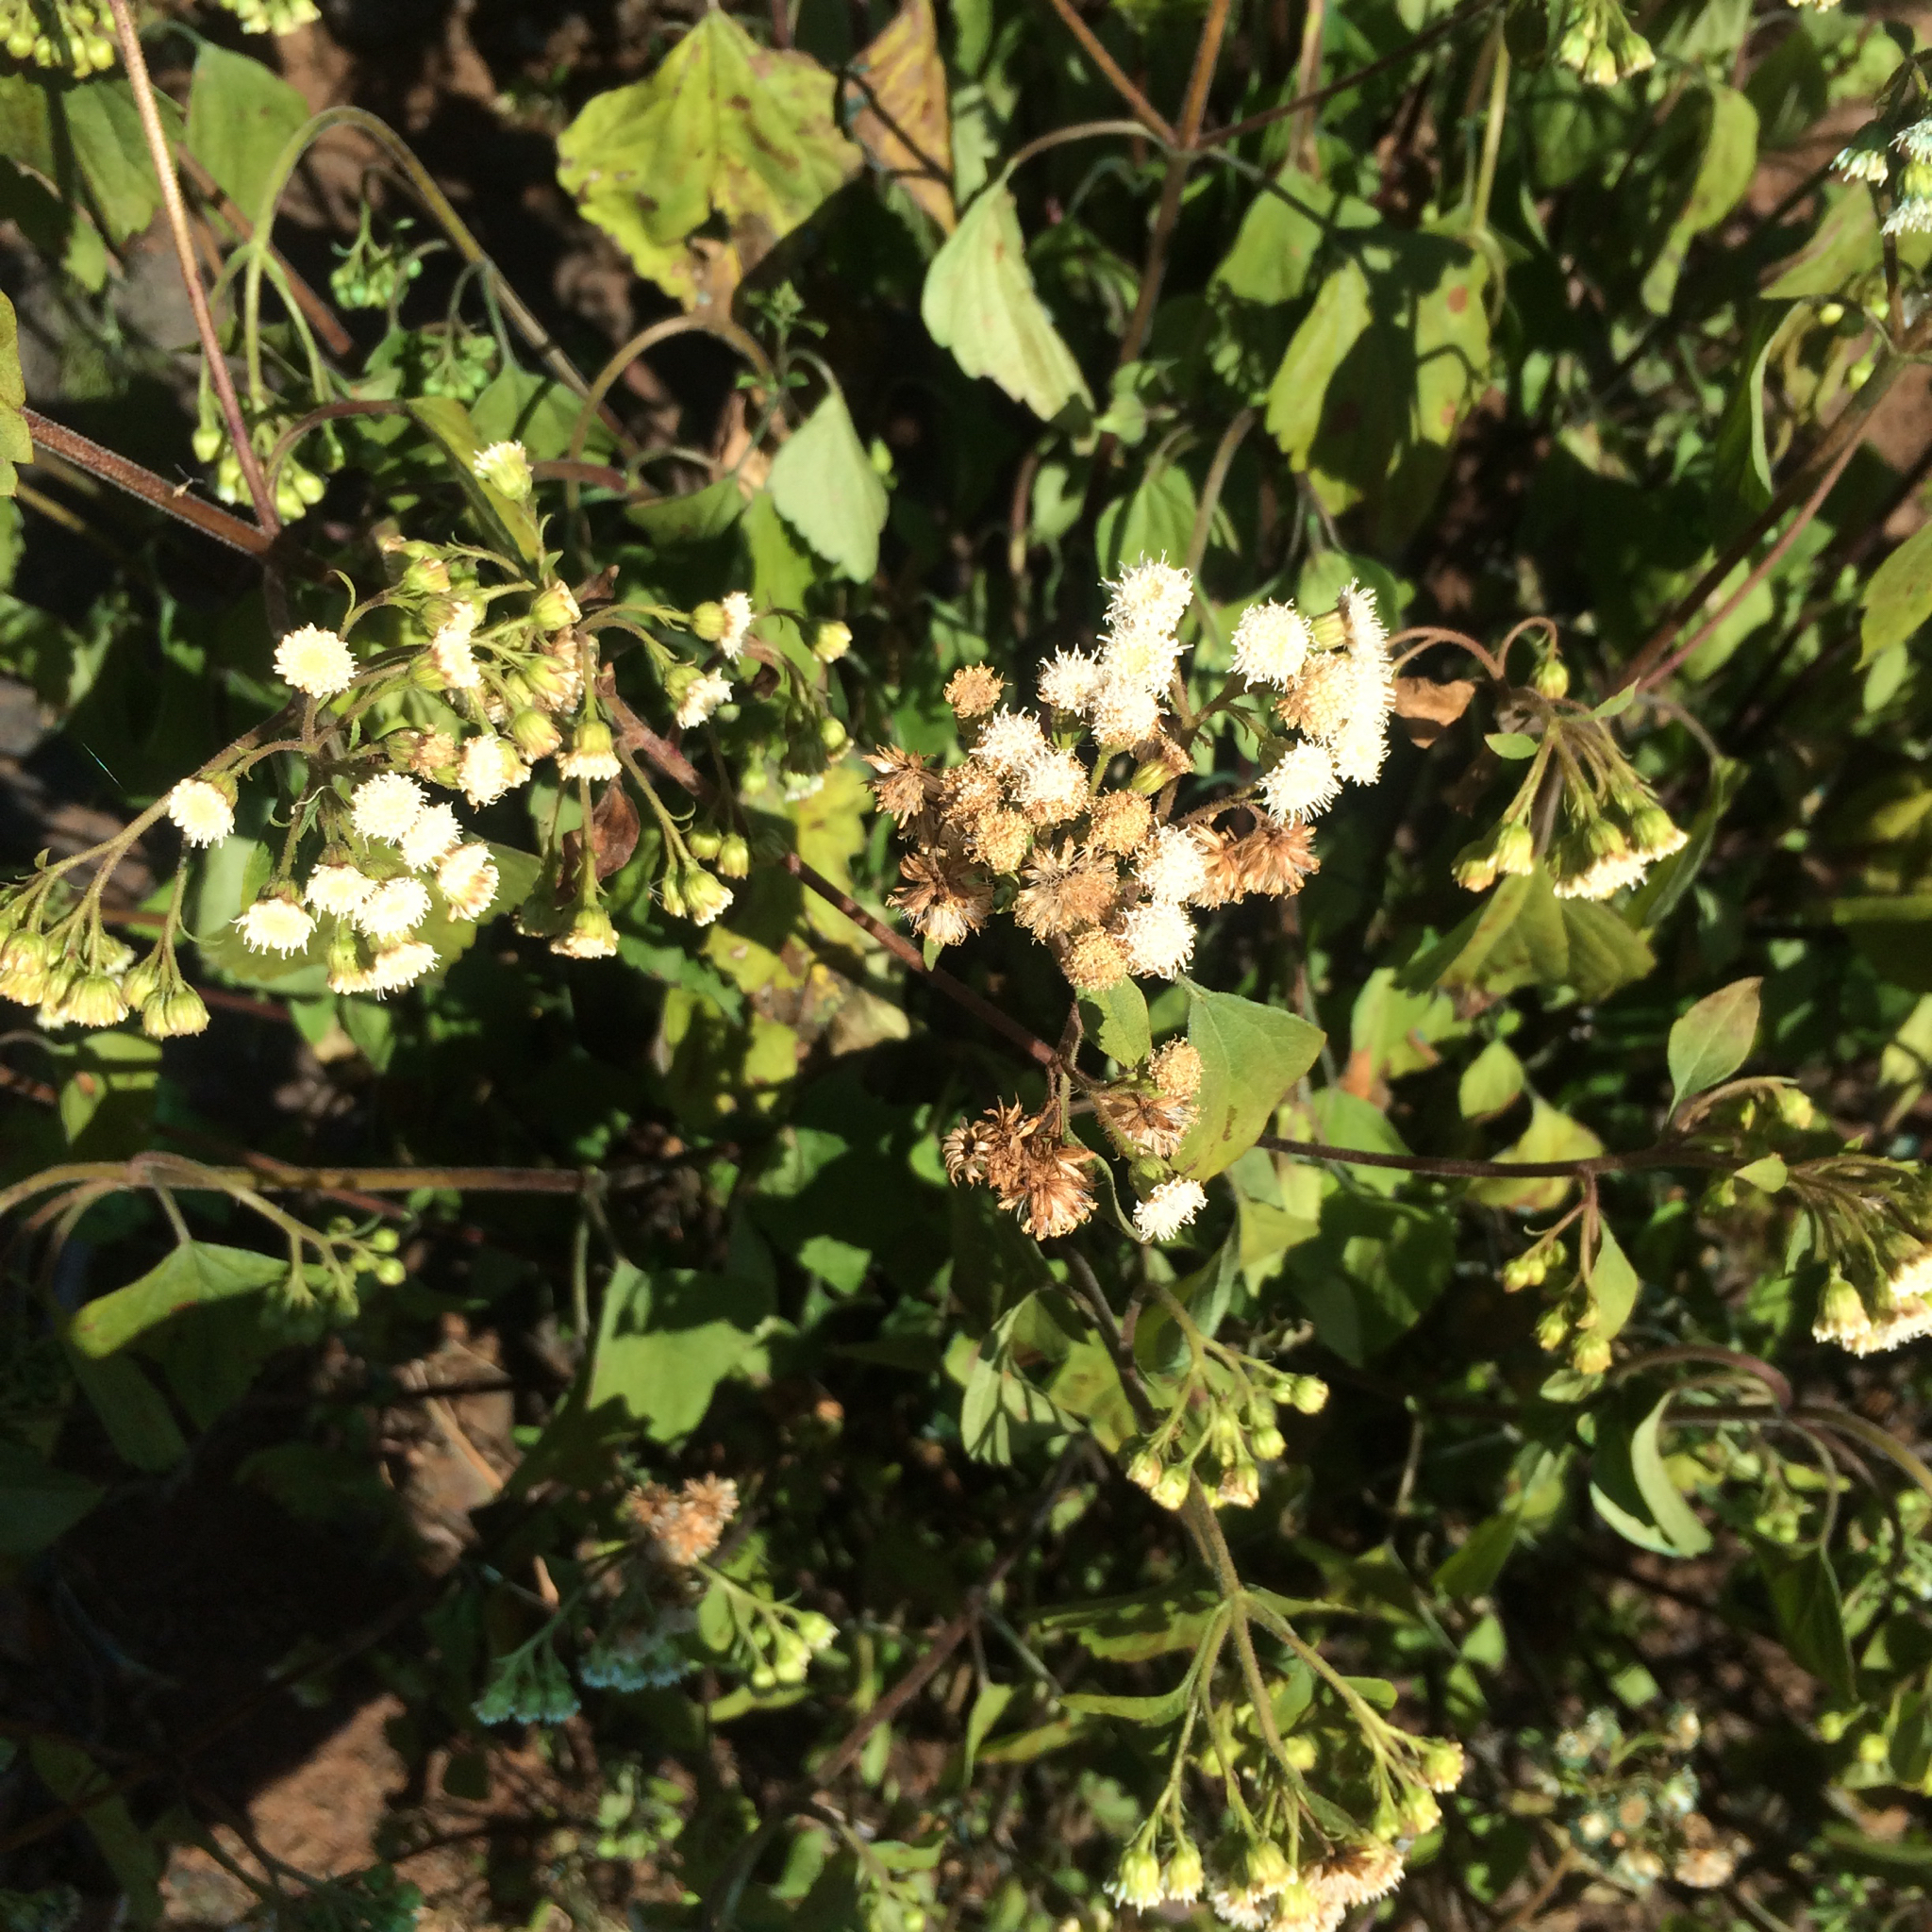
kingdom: Plantae
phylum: Tracheophyta
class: Magnoliopsida
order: Asterales
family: Asteraceae
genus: Ageratina
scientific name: Ageratina adenophora
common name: Sticky snakeroot
